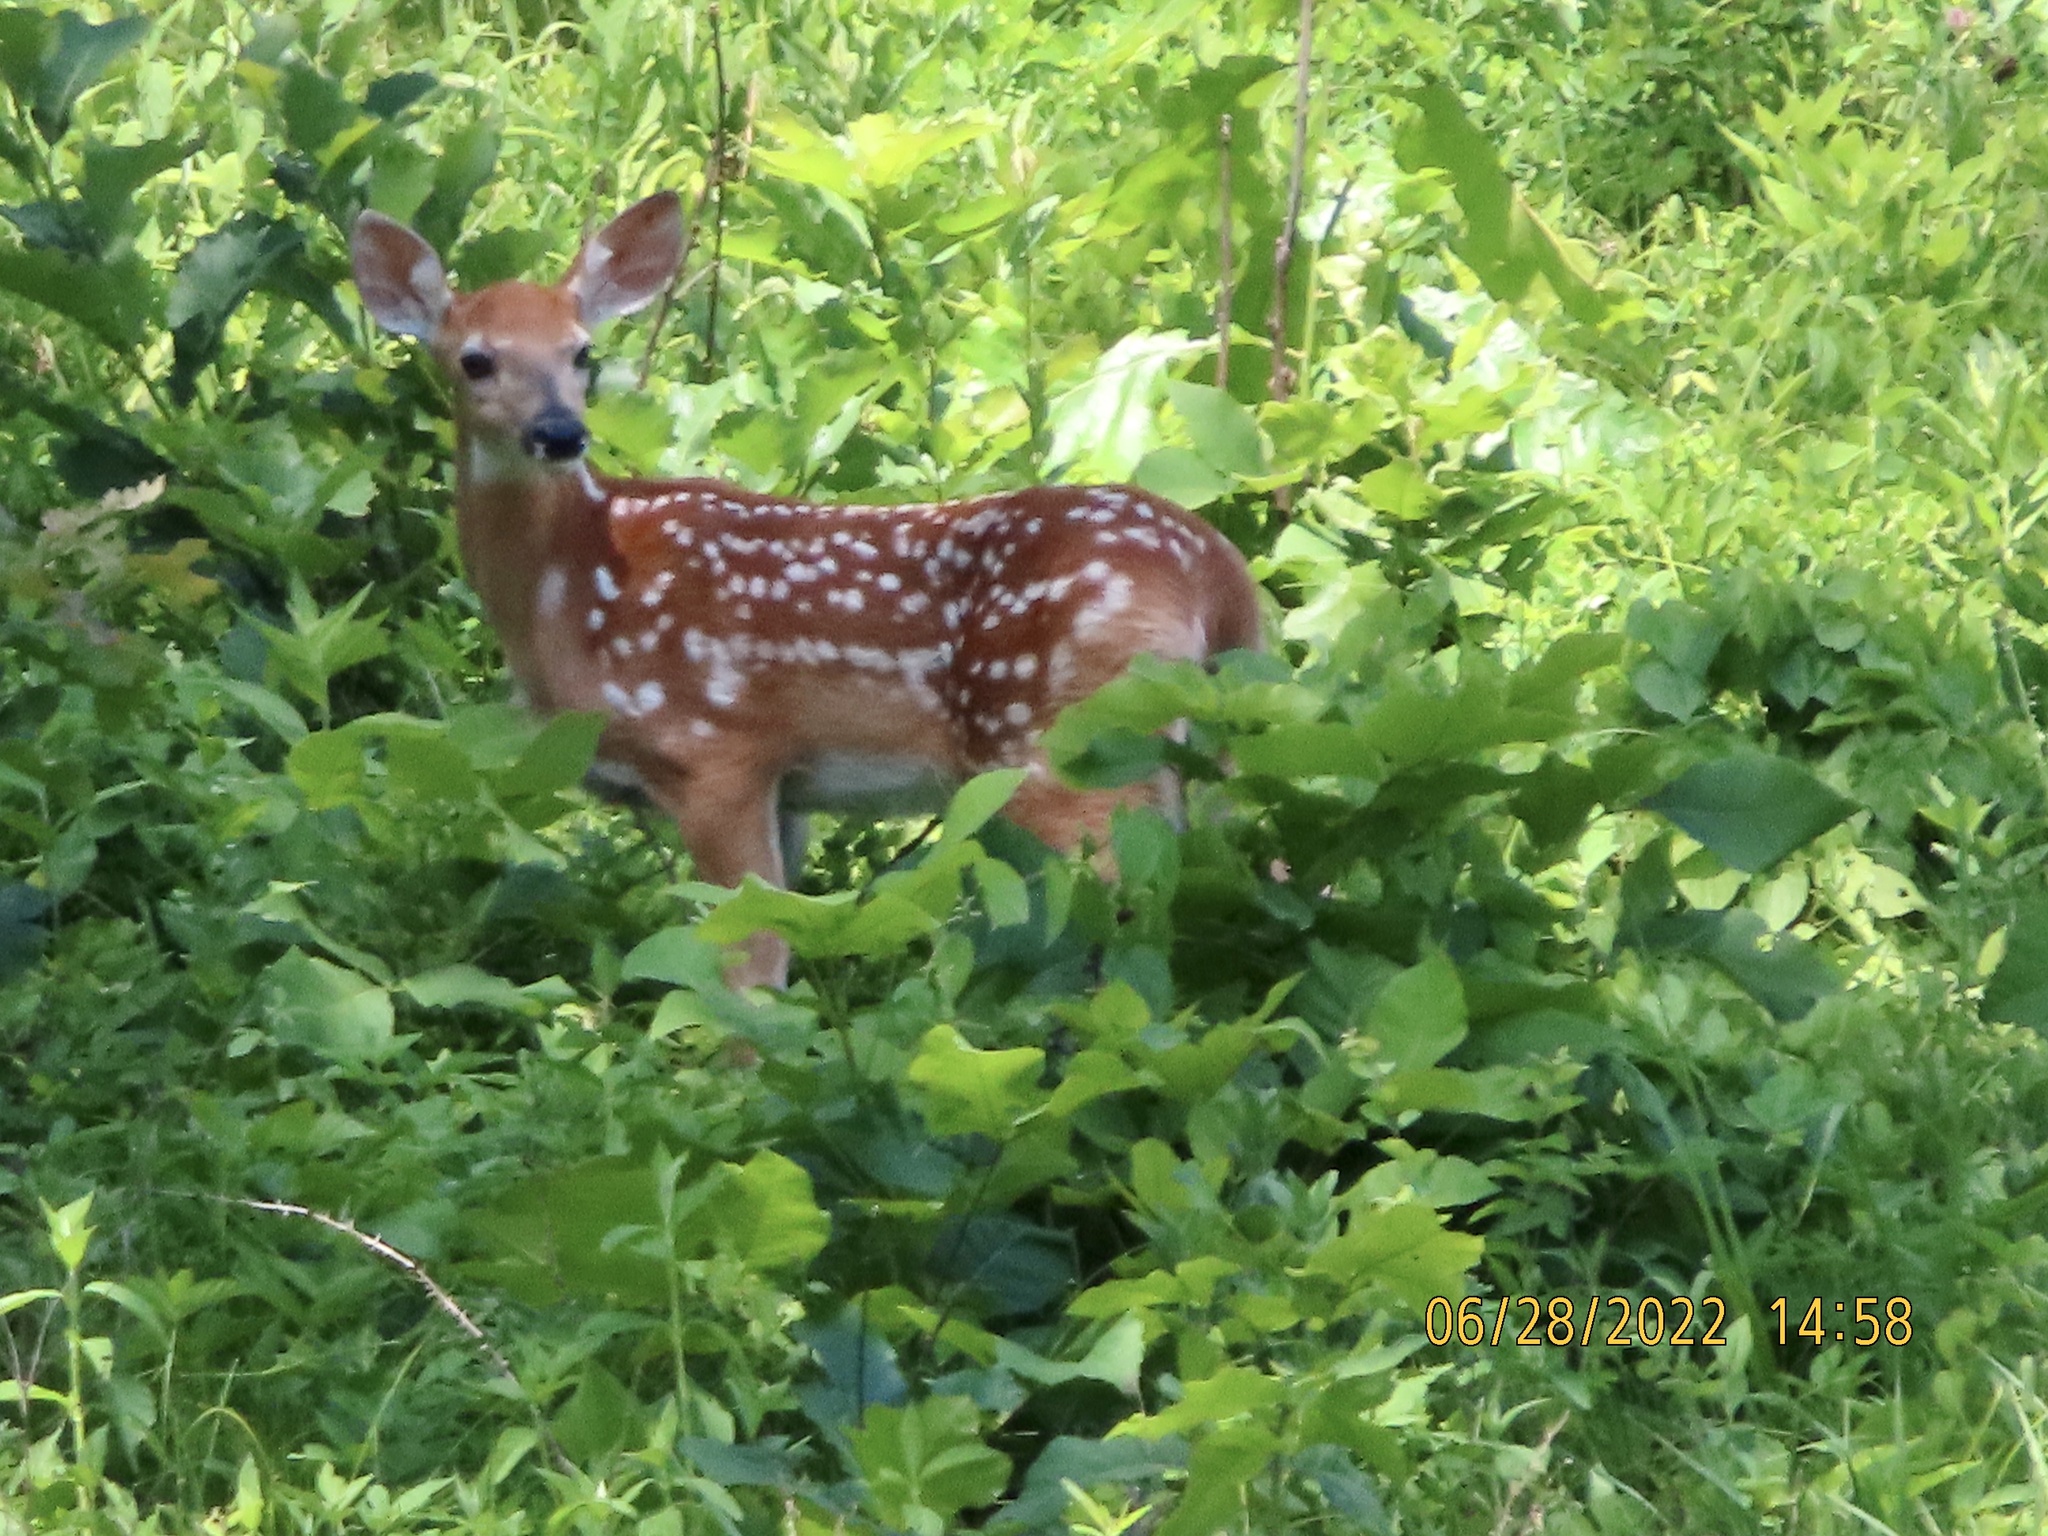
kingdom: Animalia
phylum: Chordata
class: Mammalia
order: Artiodactyla
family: Cervidae
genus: Odocoileus
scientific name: Odocoileus virginianus
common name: White-tailed deer
